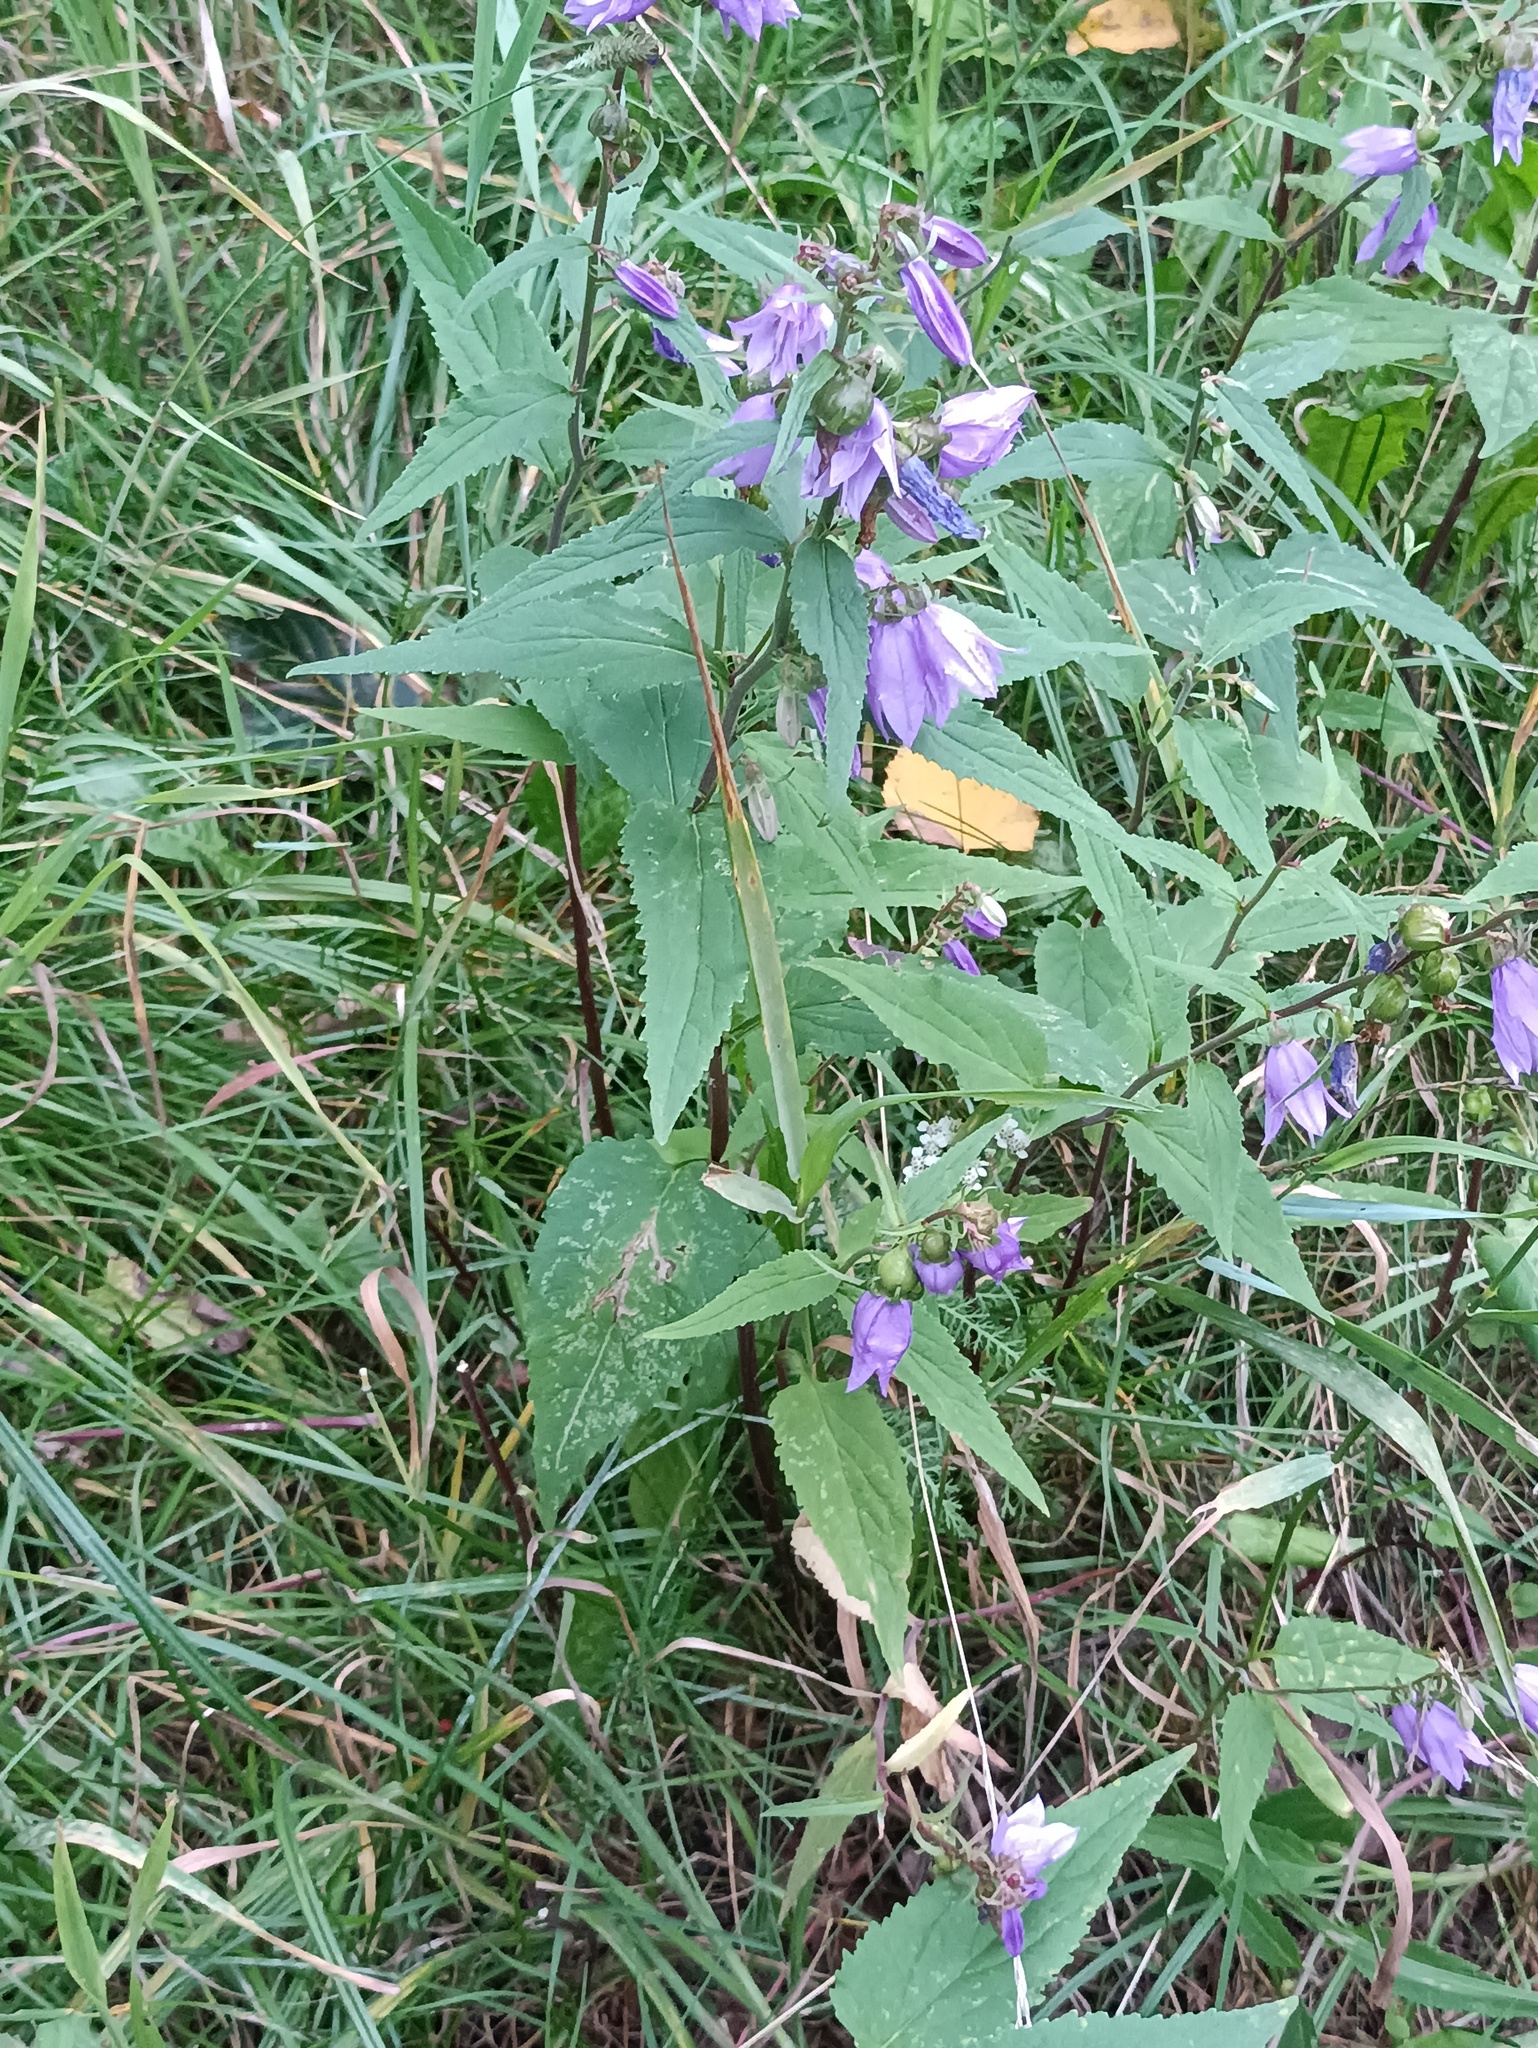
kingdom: Plantae
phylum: Tracheophyta
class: Magnoliopsida
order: Asterales
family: Campanulaceae
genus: Campanula
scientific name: Campanula rapunculoides
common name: Creeping bellflower
